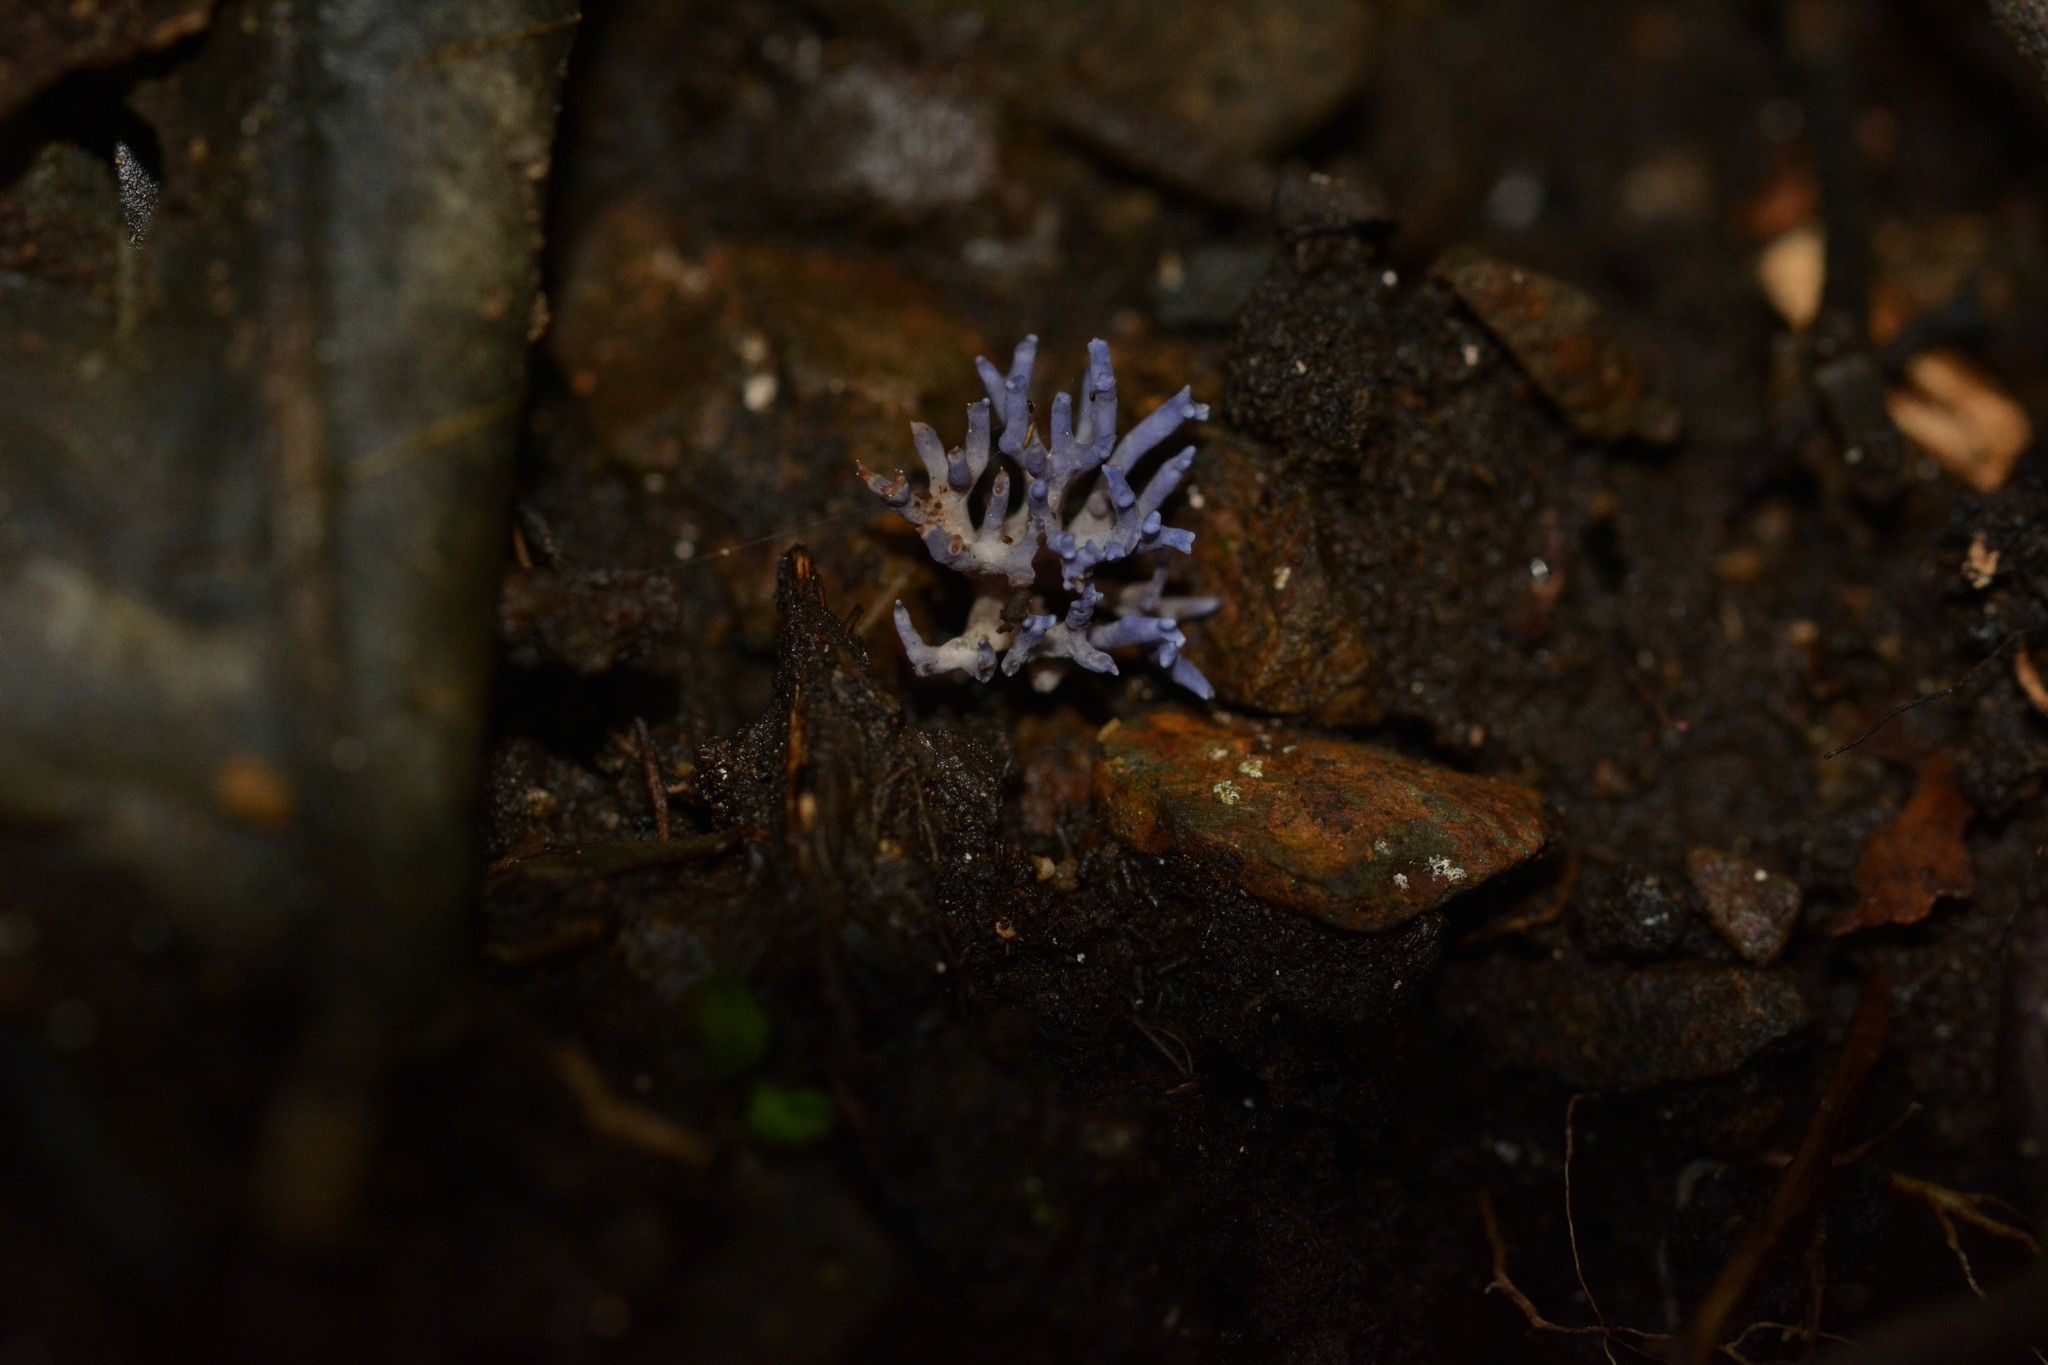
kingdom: Fungi
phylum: Basidiomycota
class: Agaricomycetes
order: Agaricales
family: Clavariaceae
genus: Ramariopsis
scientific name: Ramariopsis pulchella
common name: Lilac coral
